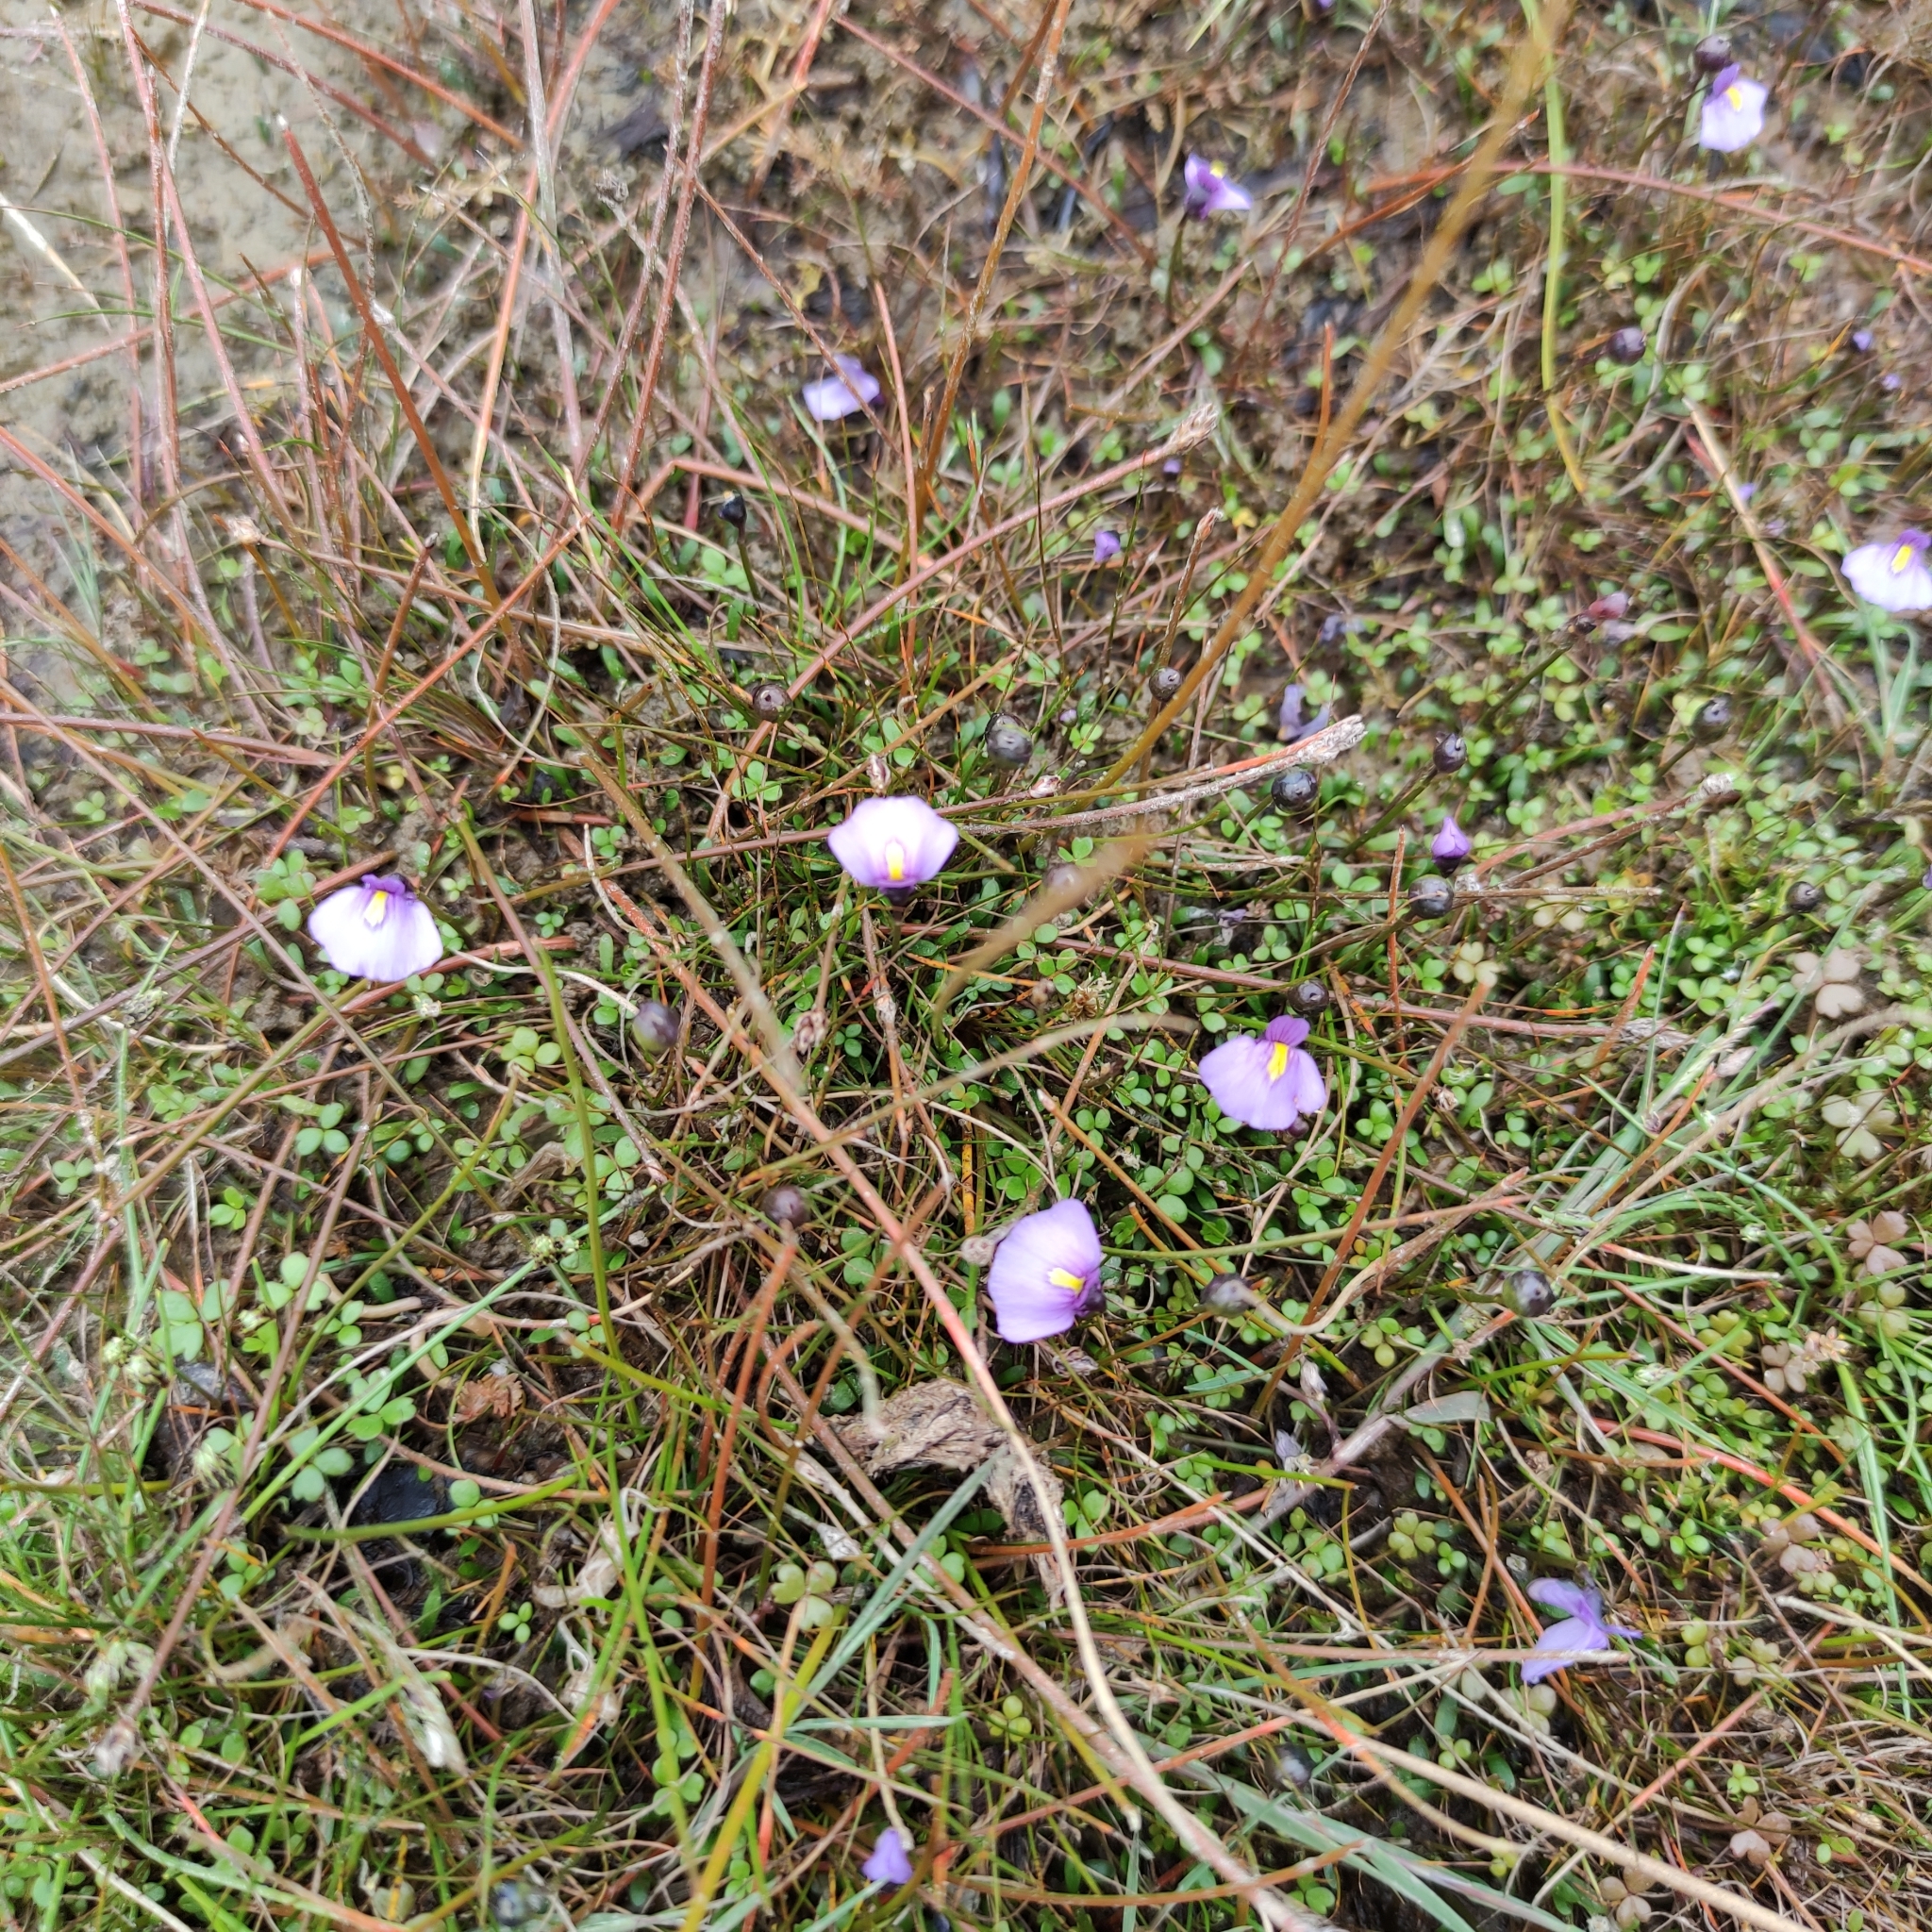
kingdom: Plantae
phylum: Tracheophyta
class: Magnoliopsida
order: Lamiales
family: Lentibulariaceae
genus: Utricularia
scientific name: Utricularia dichotoma
